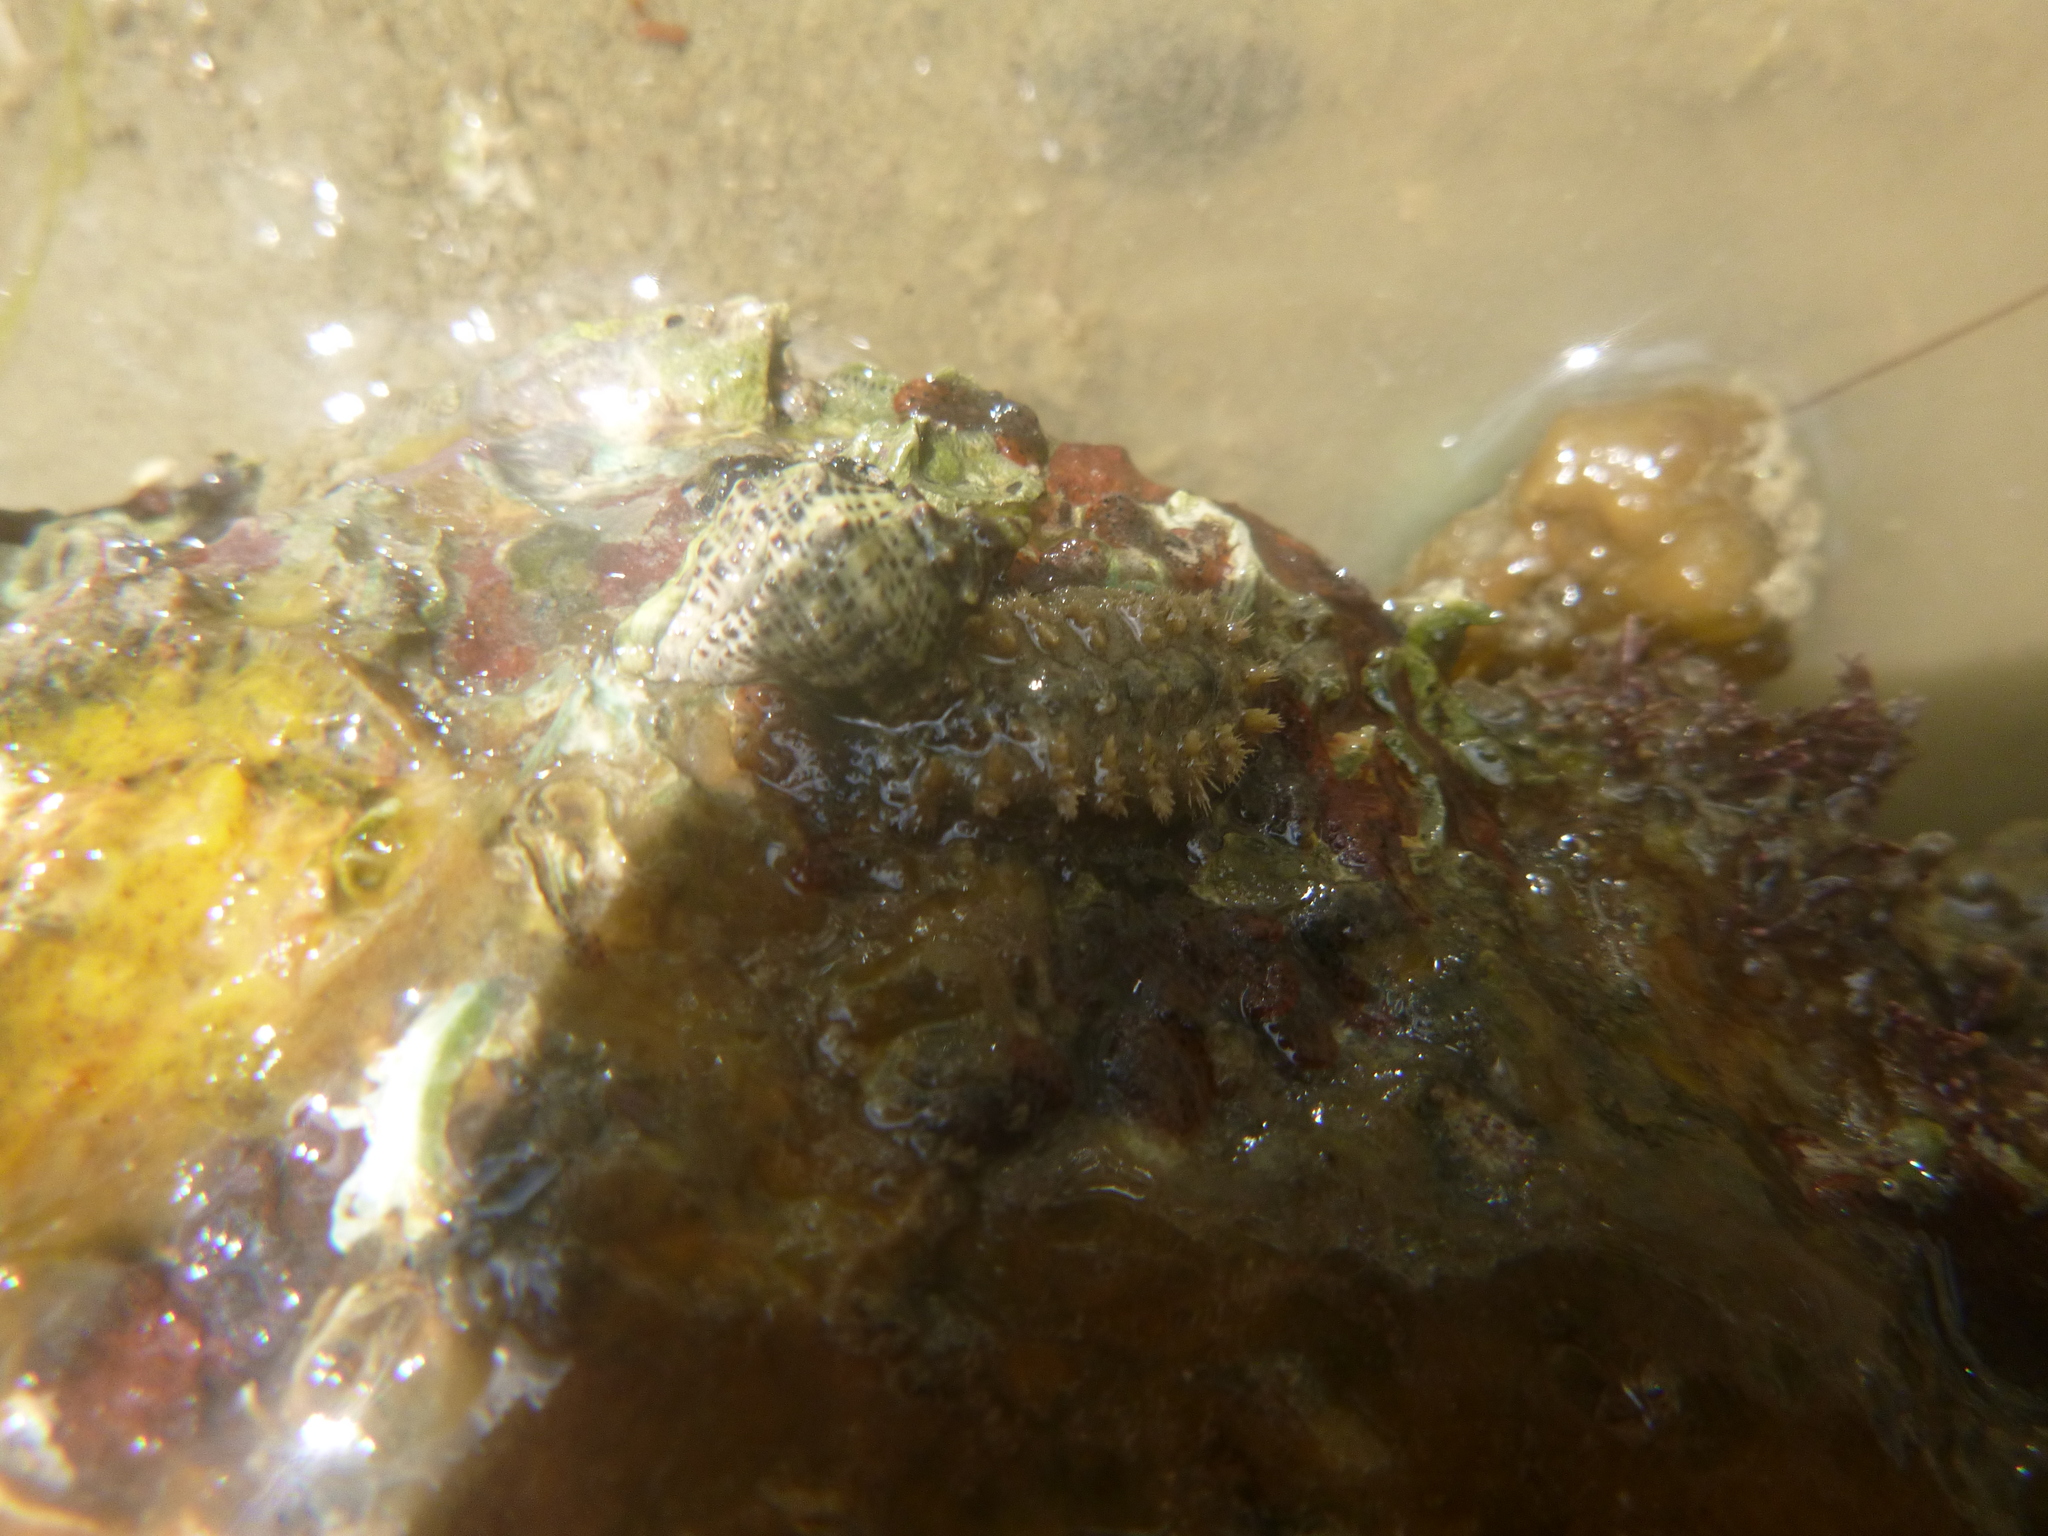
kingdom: Animalia
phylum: Mollusca
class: Polyplacophora
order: Chitonida
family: Acanthochitonidae
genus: Acanthochitona
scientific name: Acanthochitona zelandica
